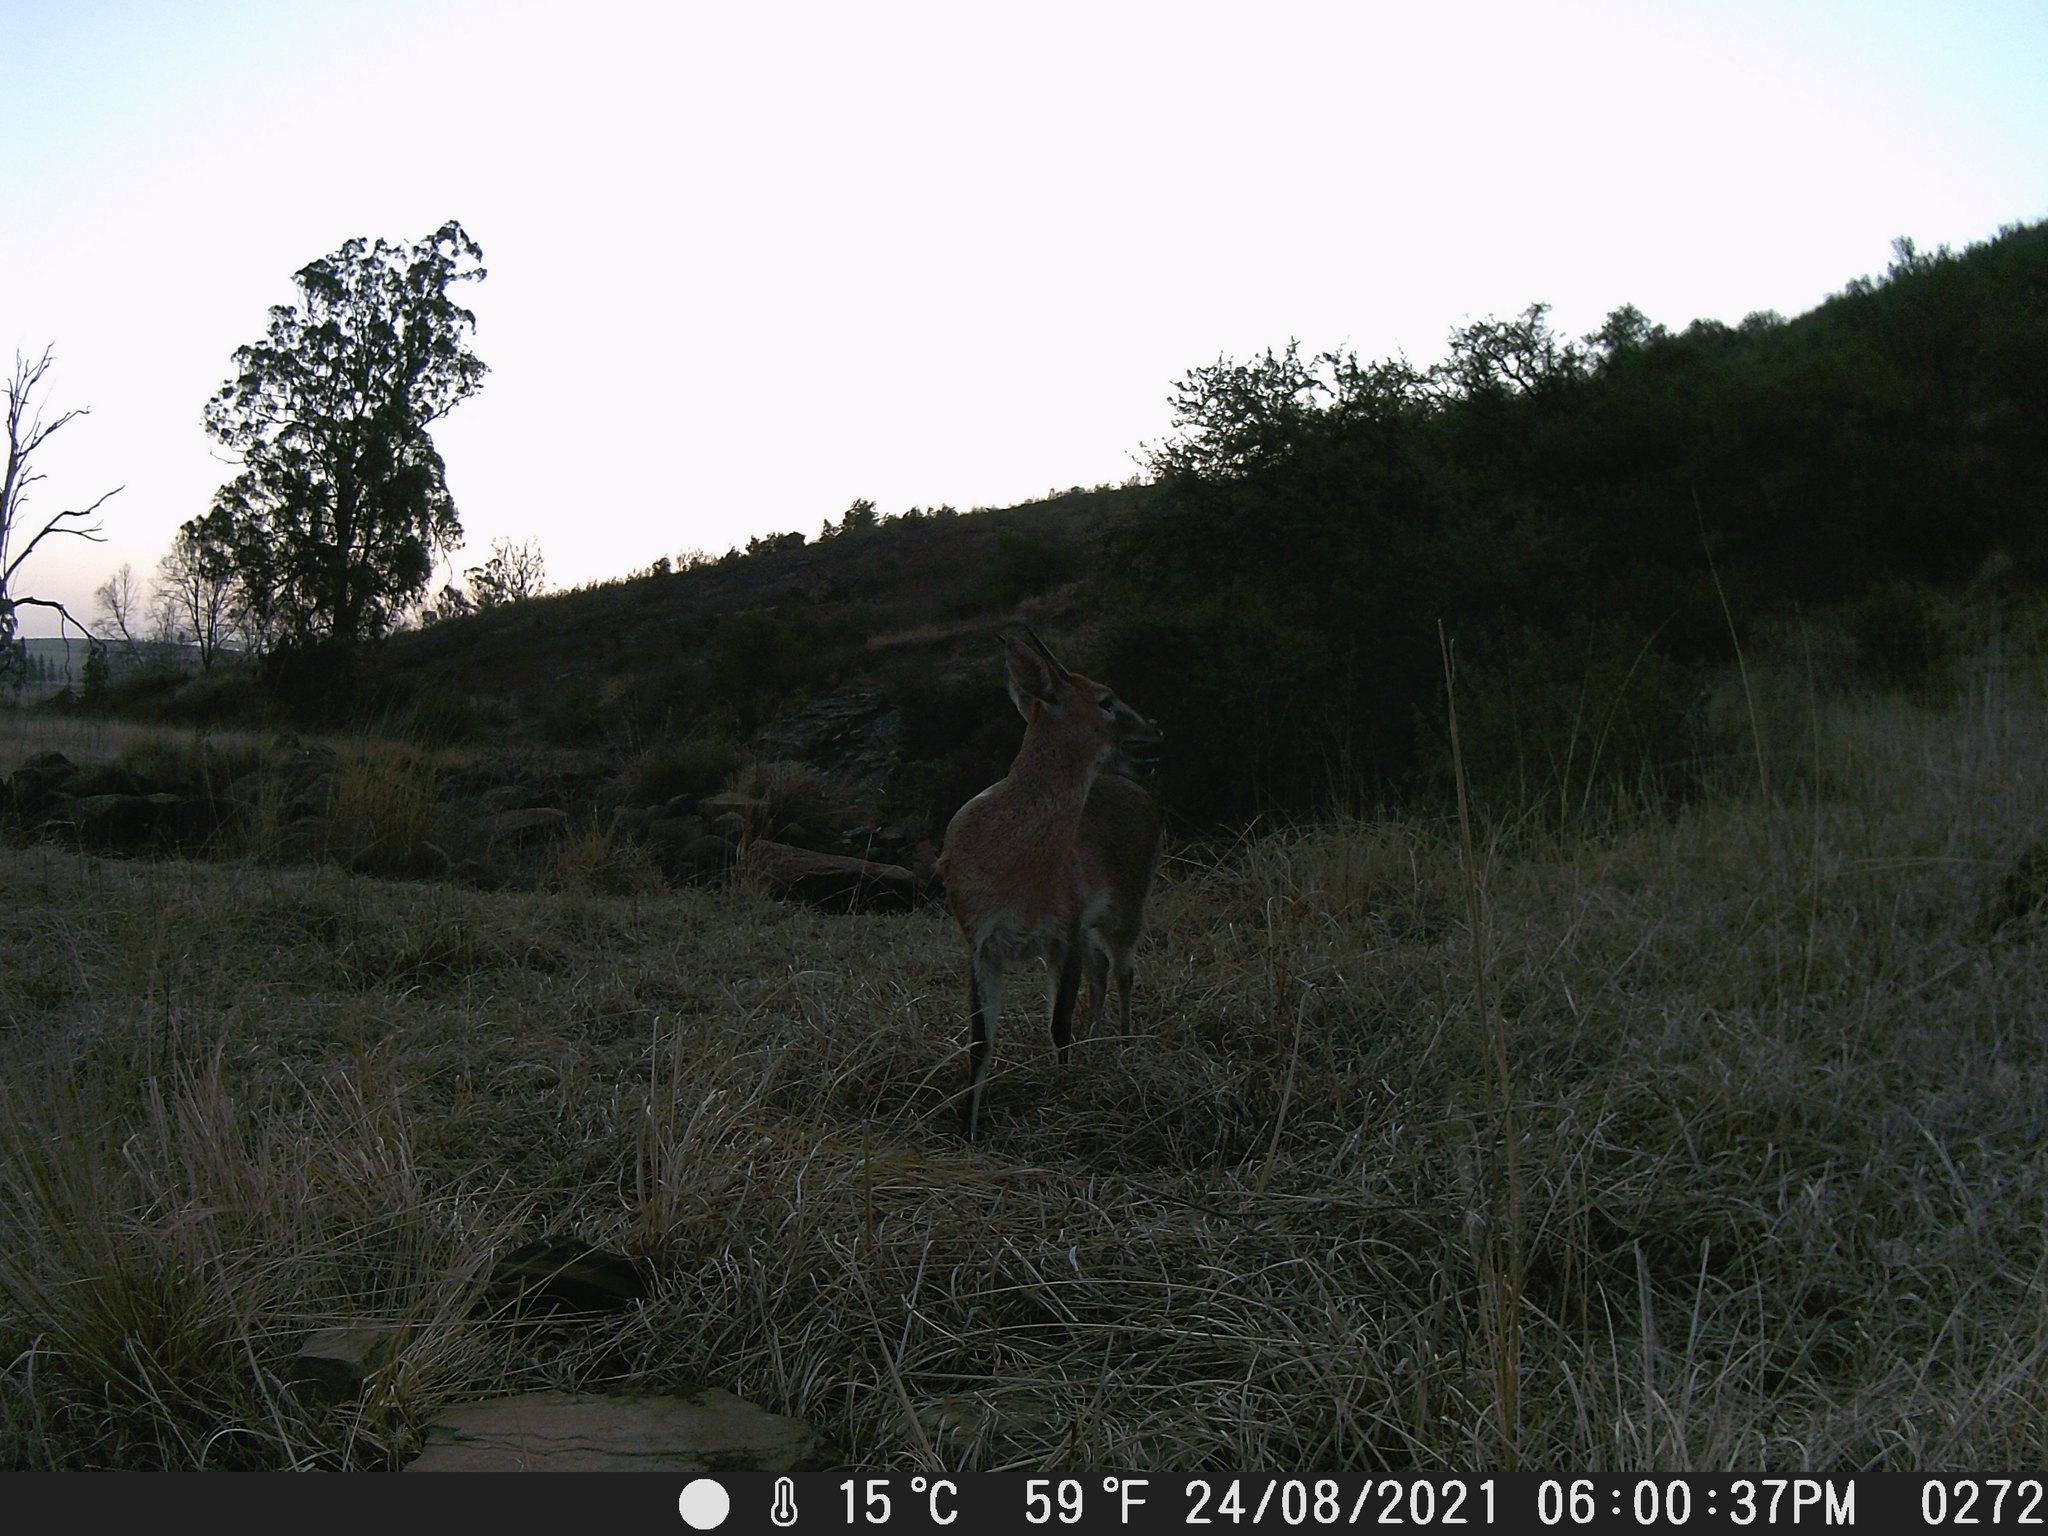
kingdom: Animalia
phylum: Chordata
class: Mammalia
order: Artiodactyla
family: Bovidae
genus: Sylvicapra
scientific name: Sylvicapra grimmia
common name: Bush duiker
